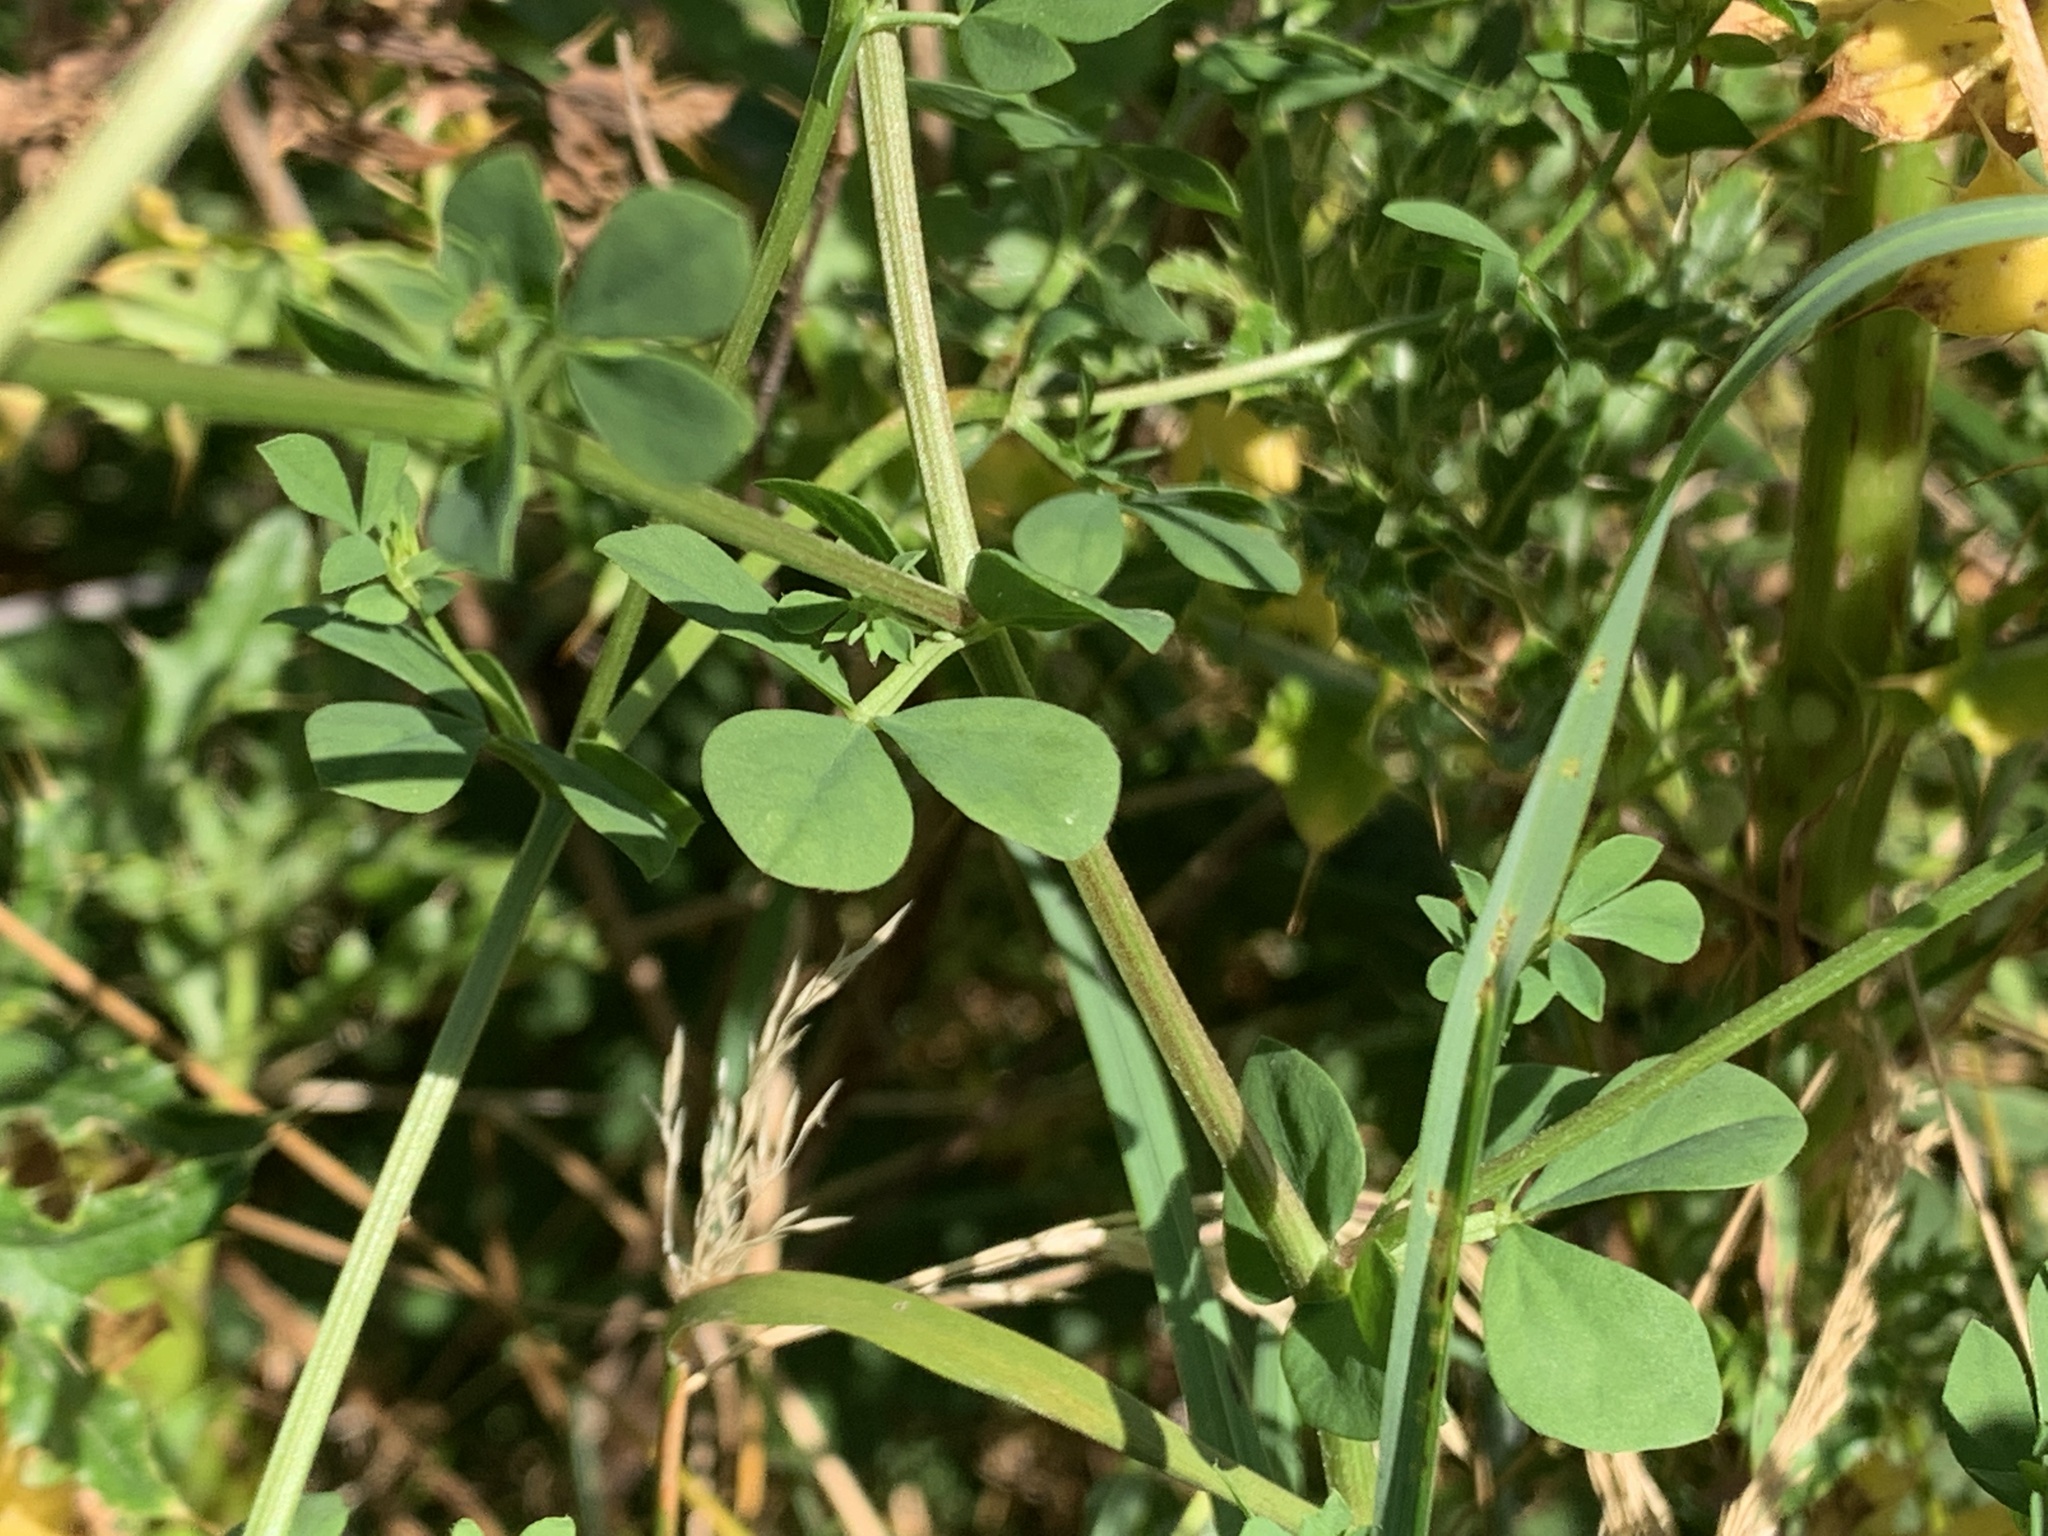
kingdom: Plantae
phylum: Tracheophyta
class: Magnoliopsida
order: Fabales
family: Fabaceae
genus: Lotus
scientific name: Lotus corniculatus
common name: Common bird's-foot-trefoil
